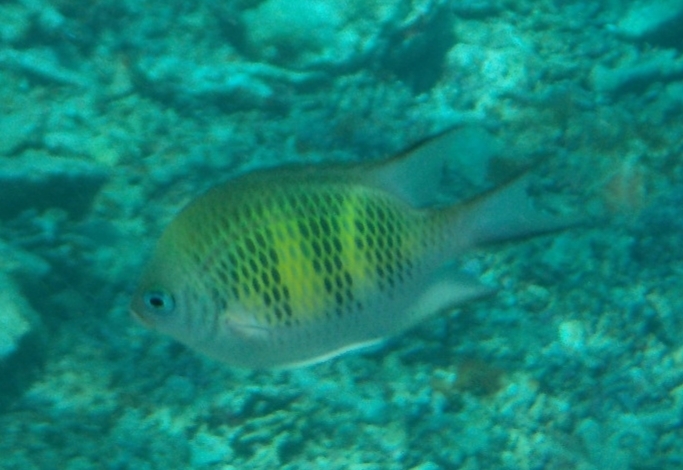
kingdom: Animalia
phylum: Chordata
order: Perciformes
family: Pomacentridae
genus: Amblyglyphidodon
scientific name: Amblyglyphidodon curacao
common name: Staghorn damsel
